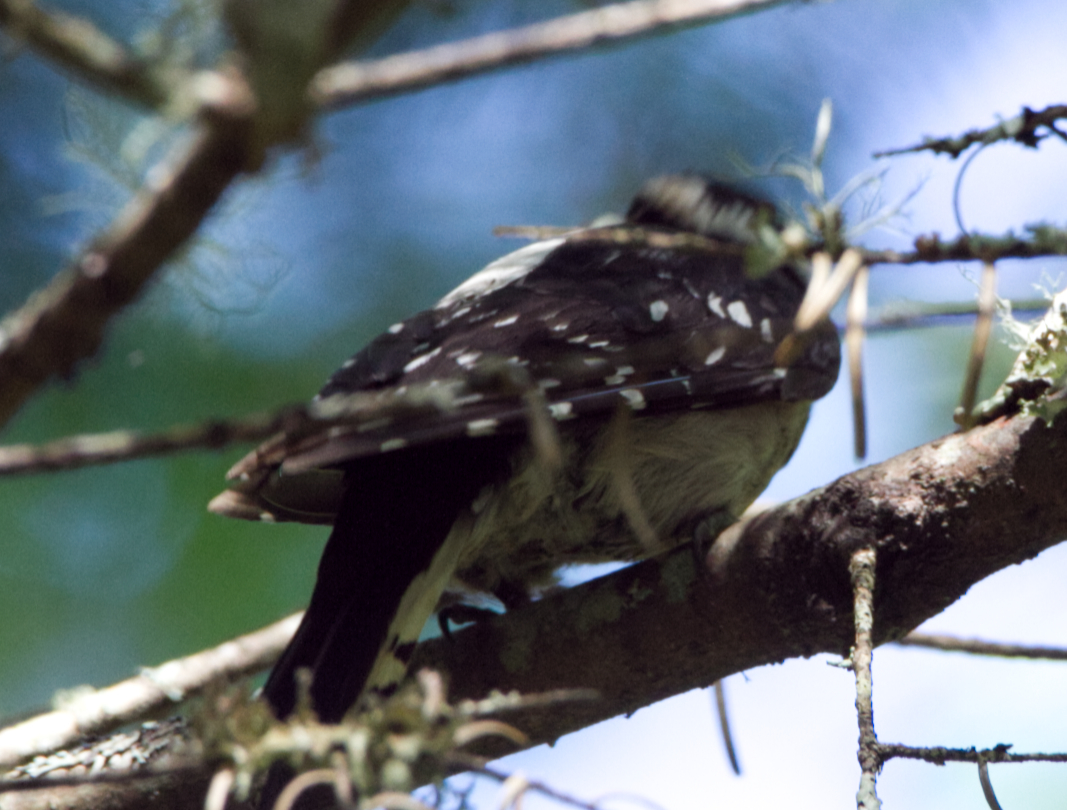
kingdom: Animalia
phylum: Chordata
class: Aves
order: Piciformes
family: Picidae
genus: Dryobates
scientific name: Dryobates pubescens
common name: Downy woodpecker
